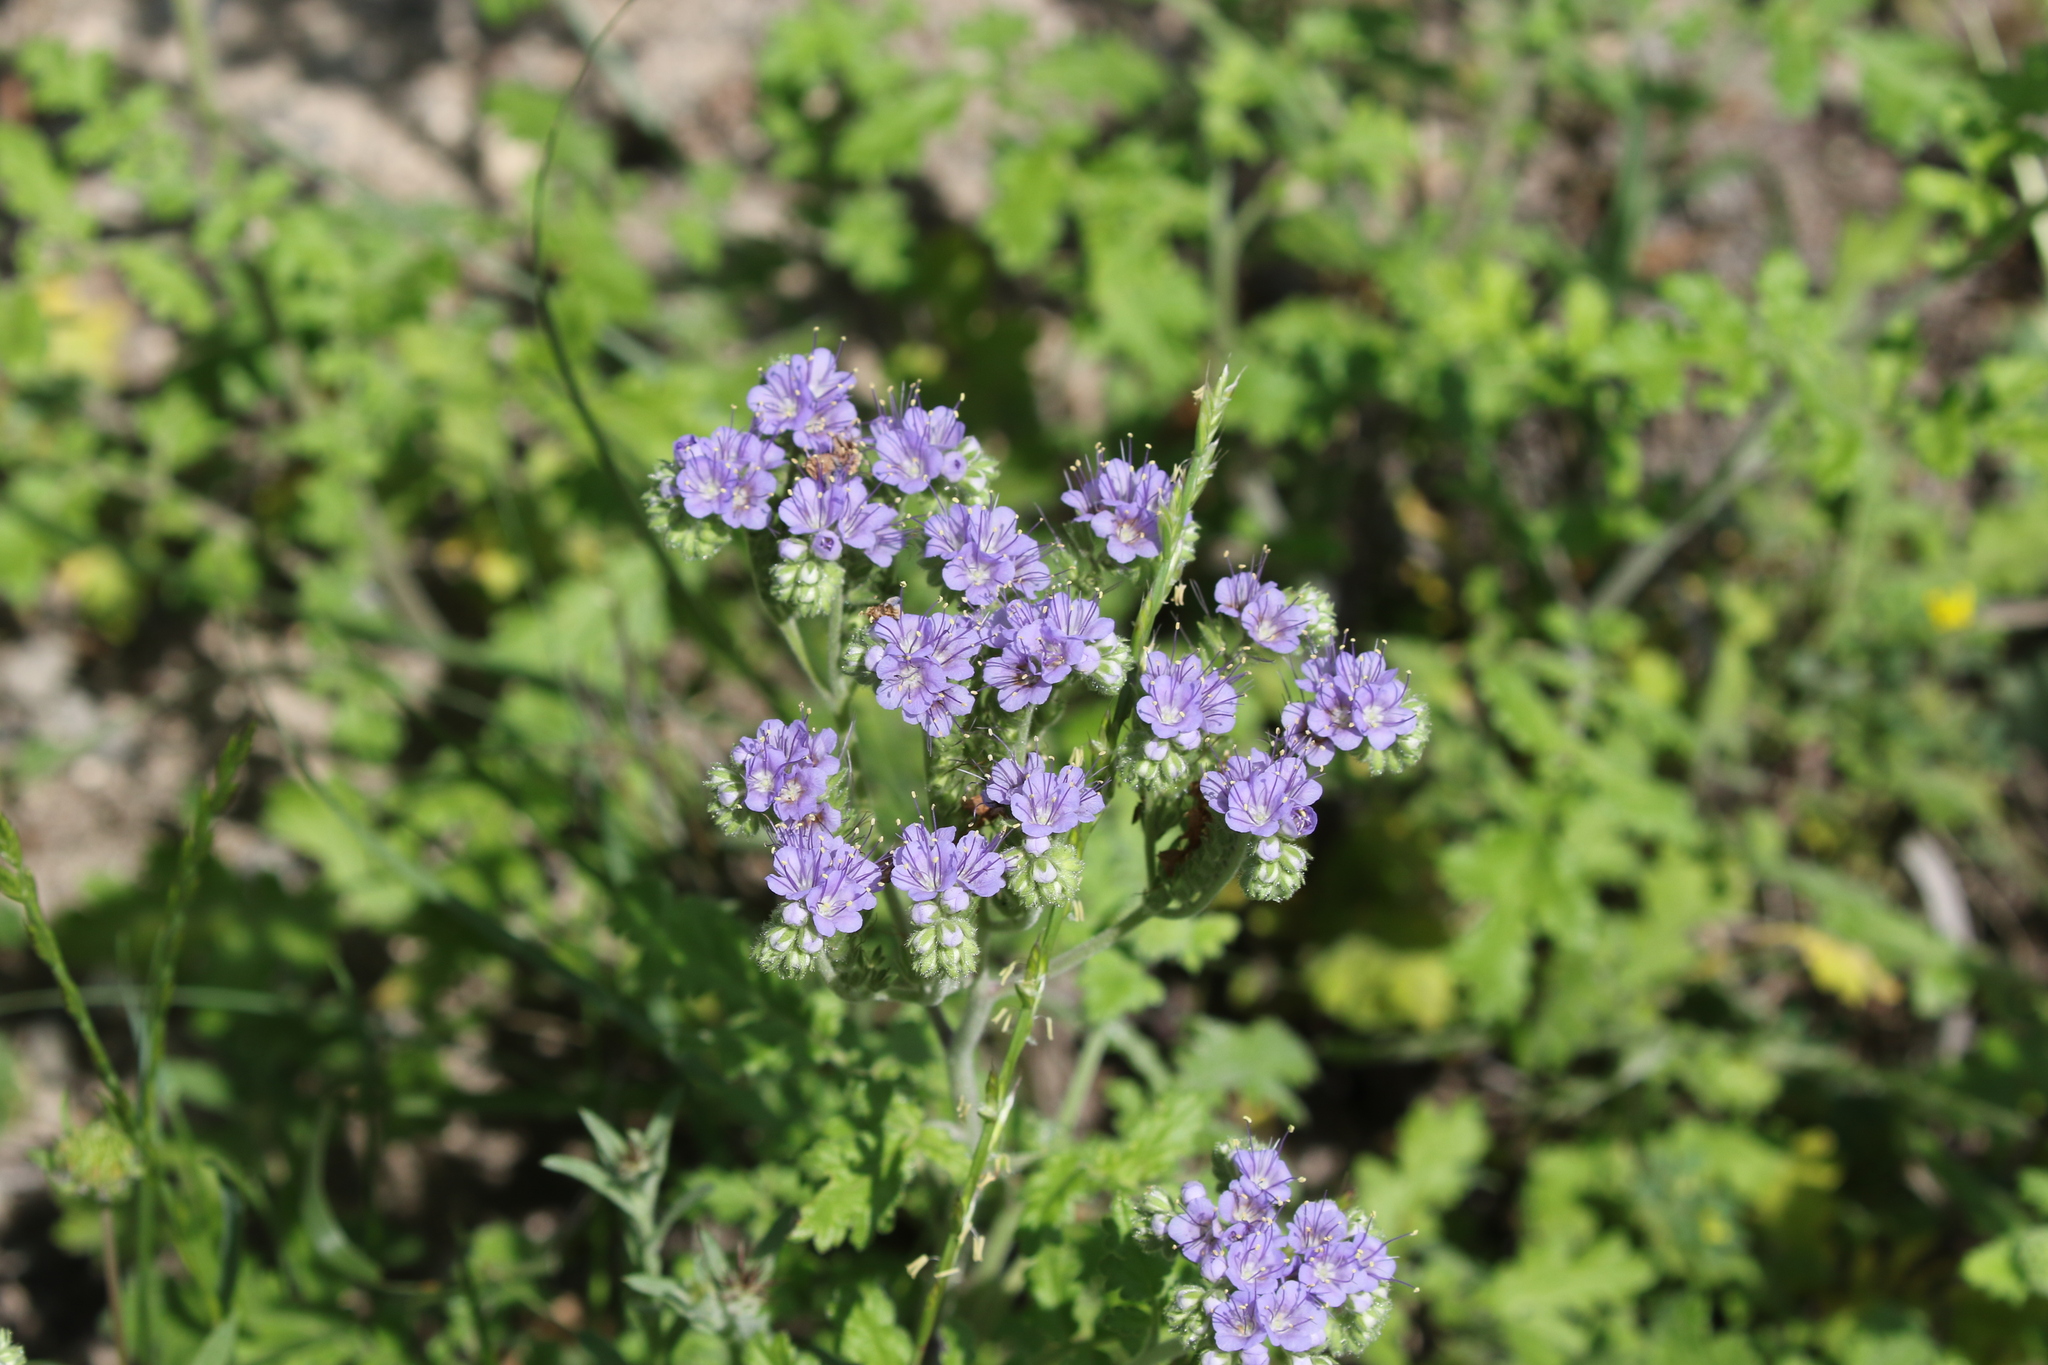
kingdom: Plantae
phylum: Tracheophyta
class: Magnoliopsida
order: Boraginales
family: Hydrophyllaceae
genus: Phacelia
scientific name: Phacelia congesta
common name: Blue curls
